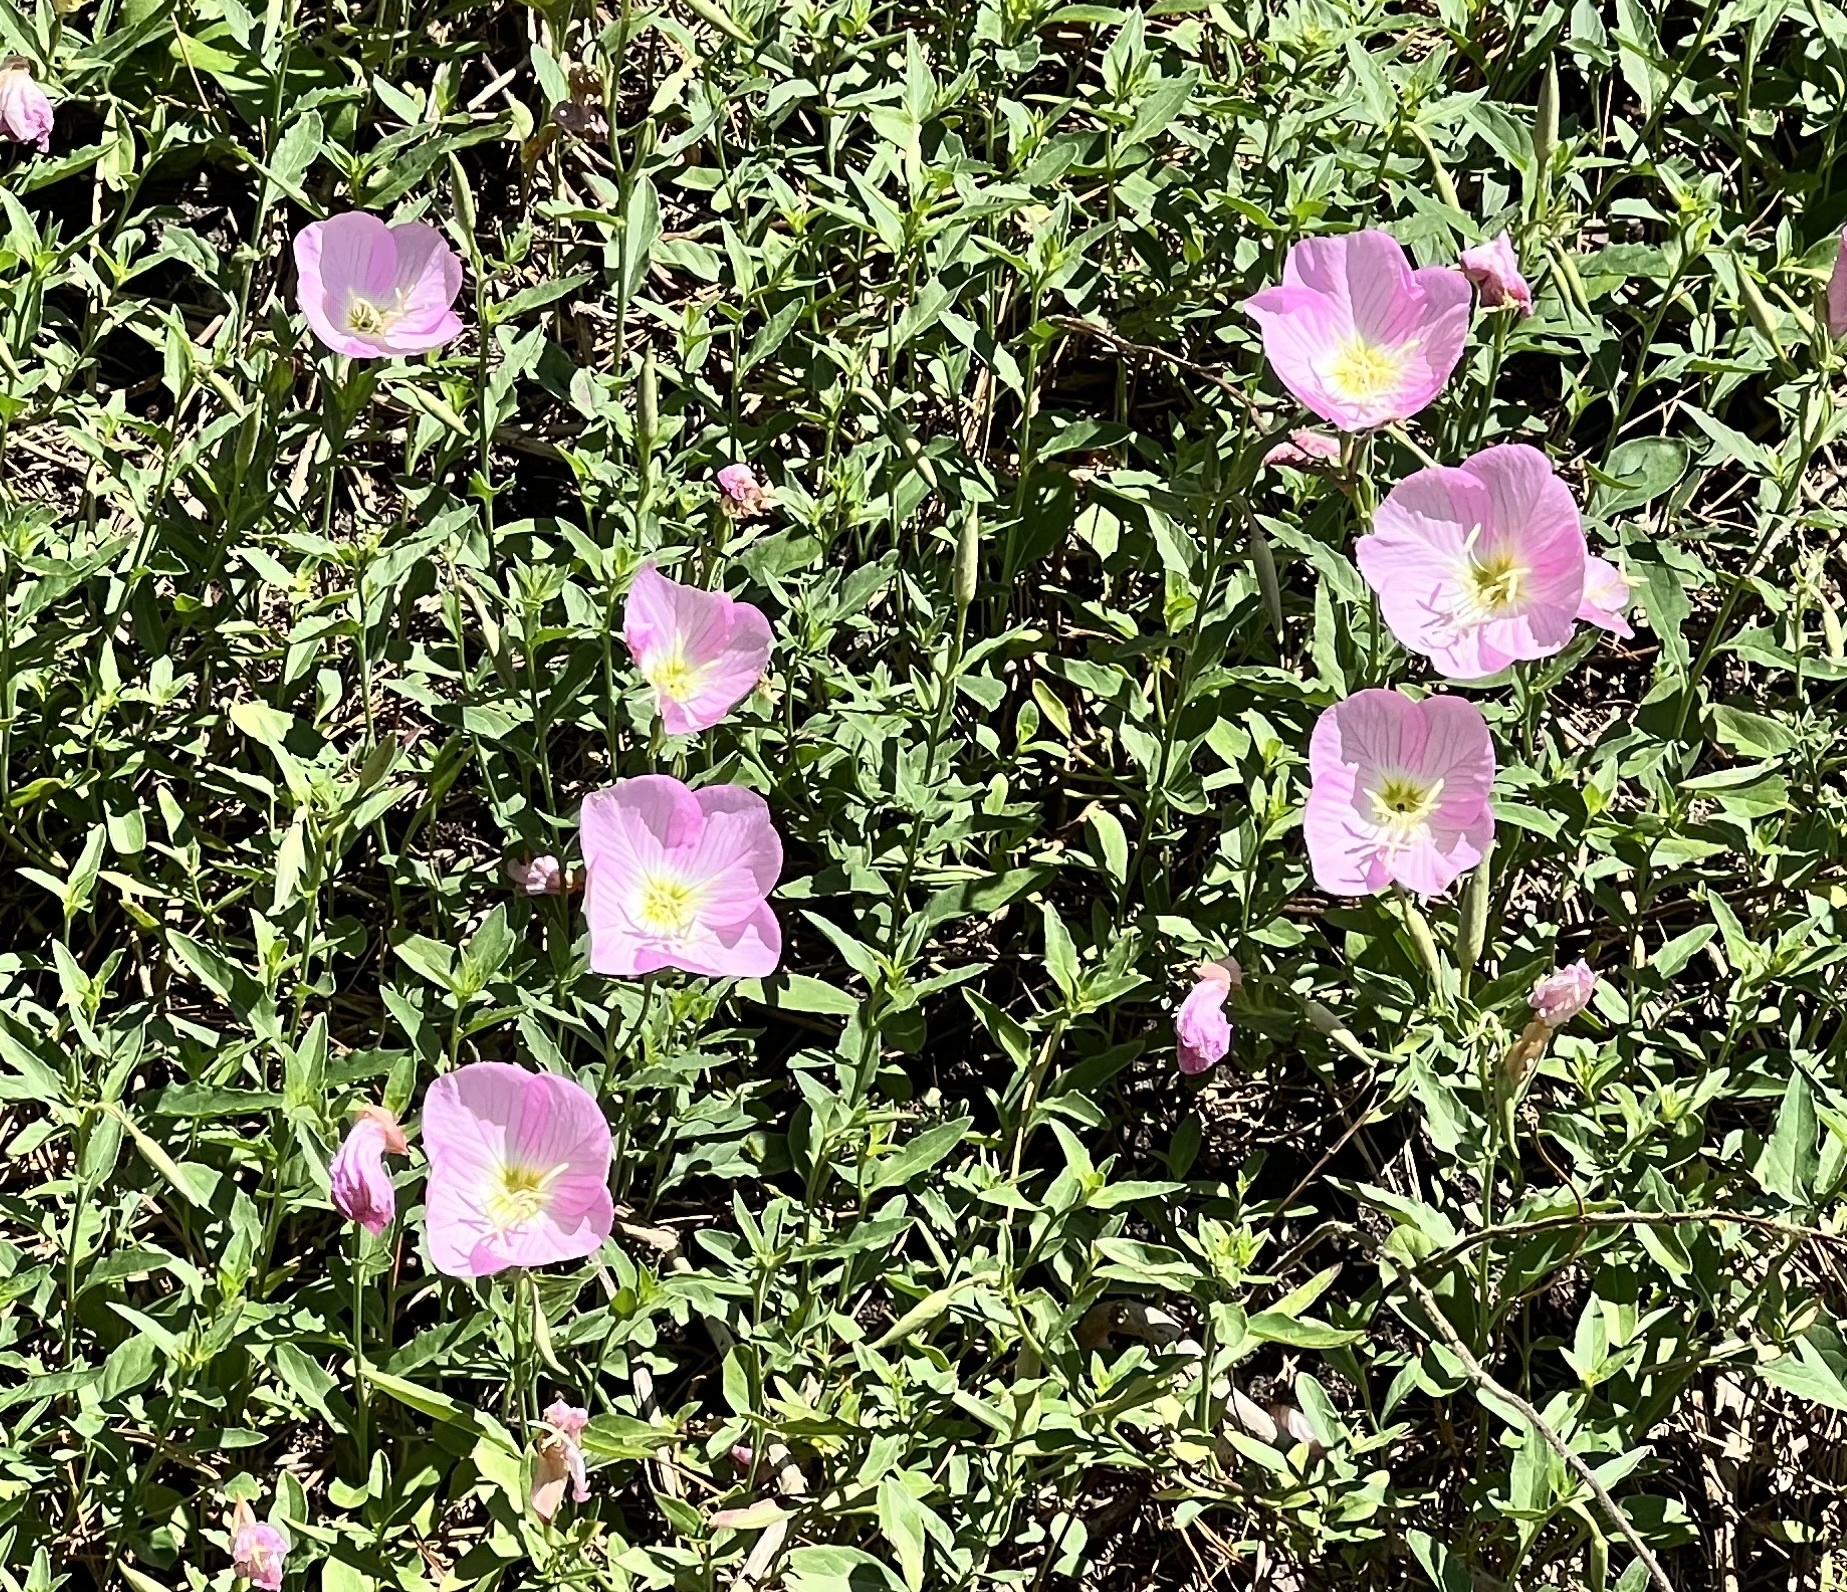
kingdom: Plantae
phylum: Tracheophyta
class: Magnoliopsida
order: Myrtales
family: Onagraceae
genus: Oenothera
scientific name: Oenothera speciosa
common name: White evening-primrose
